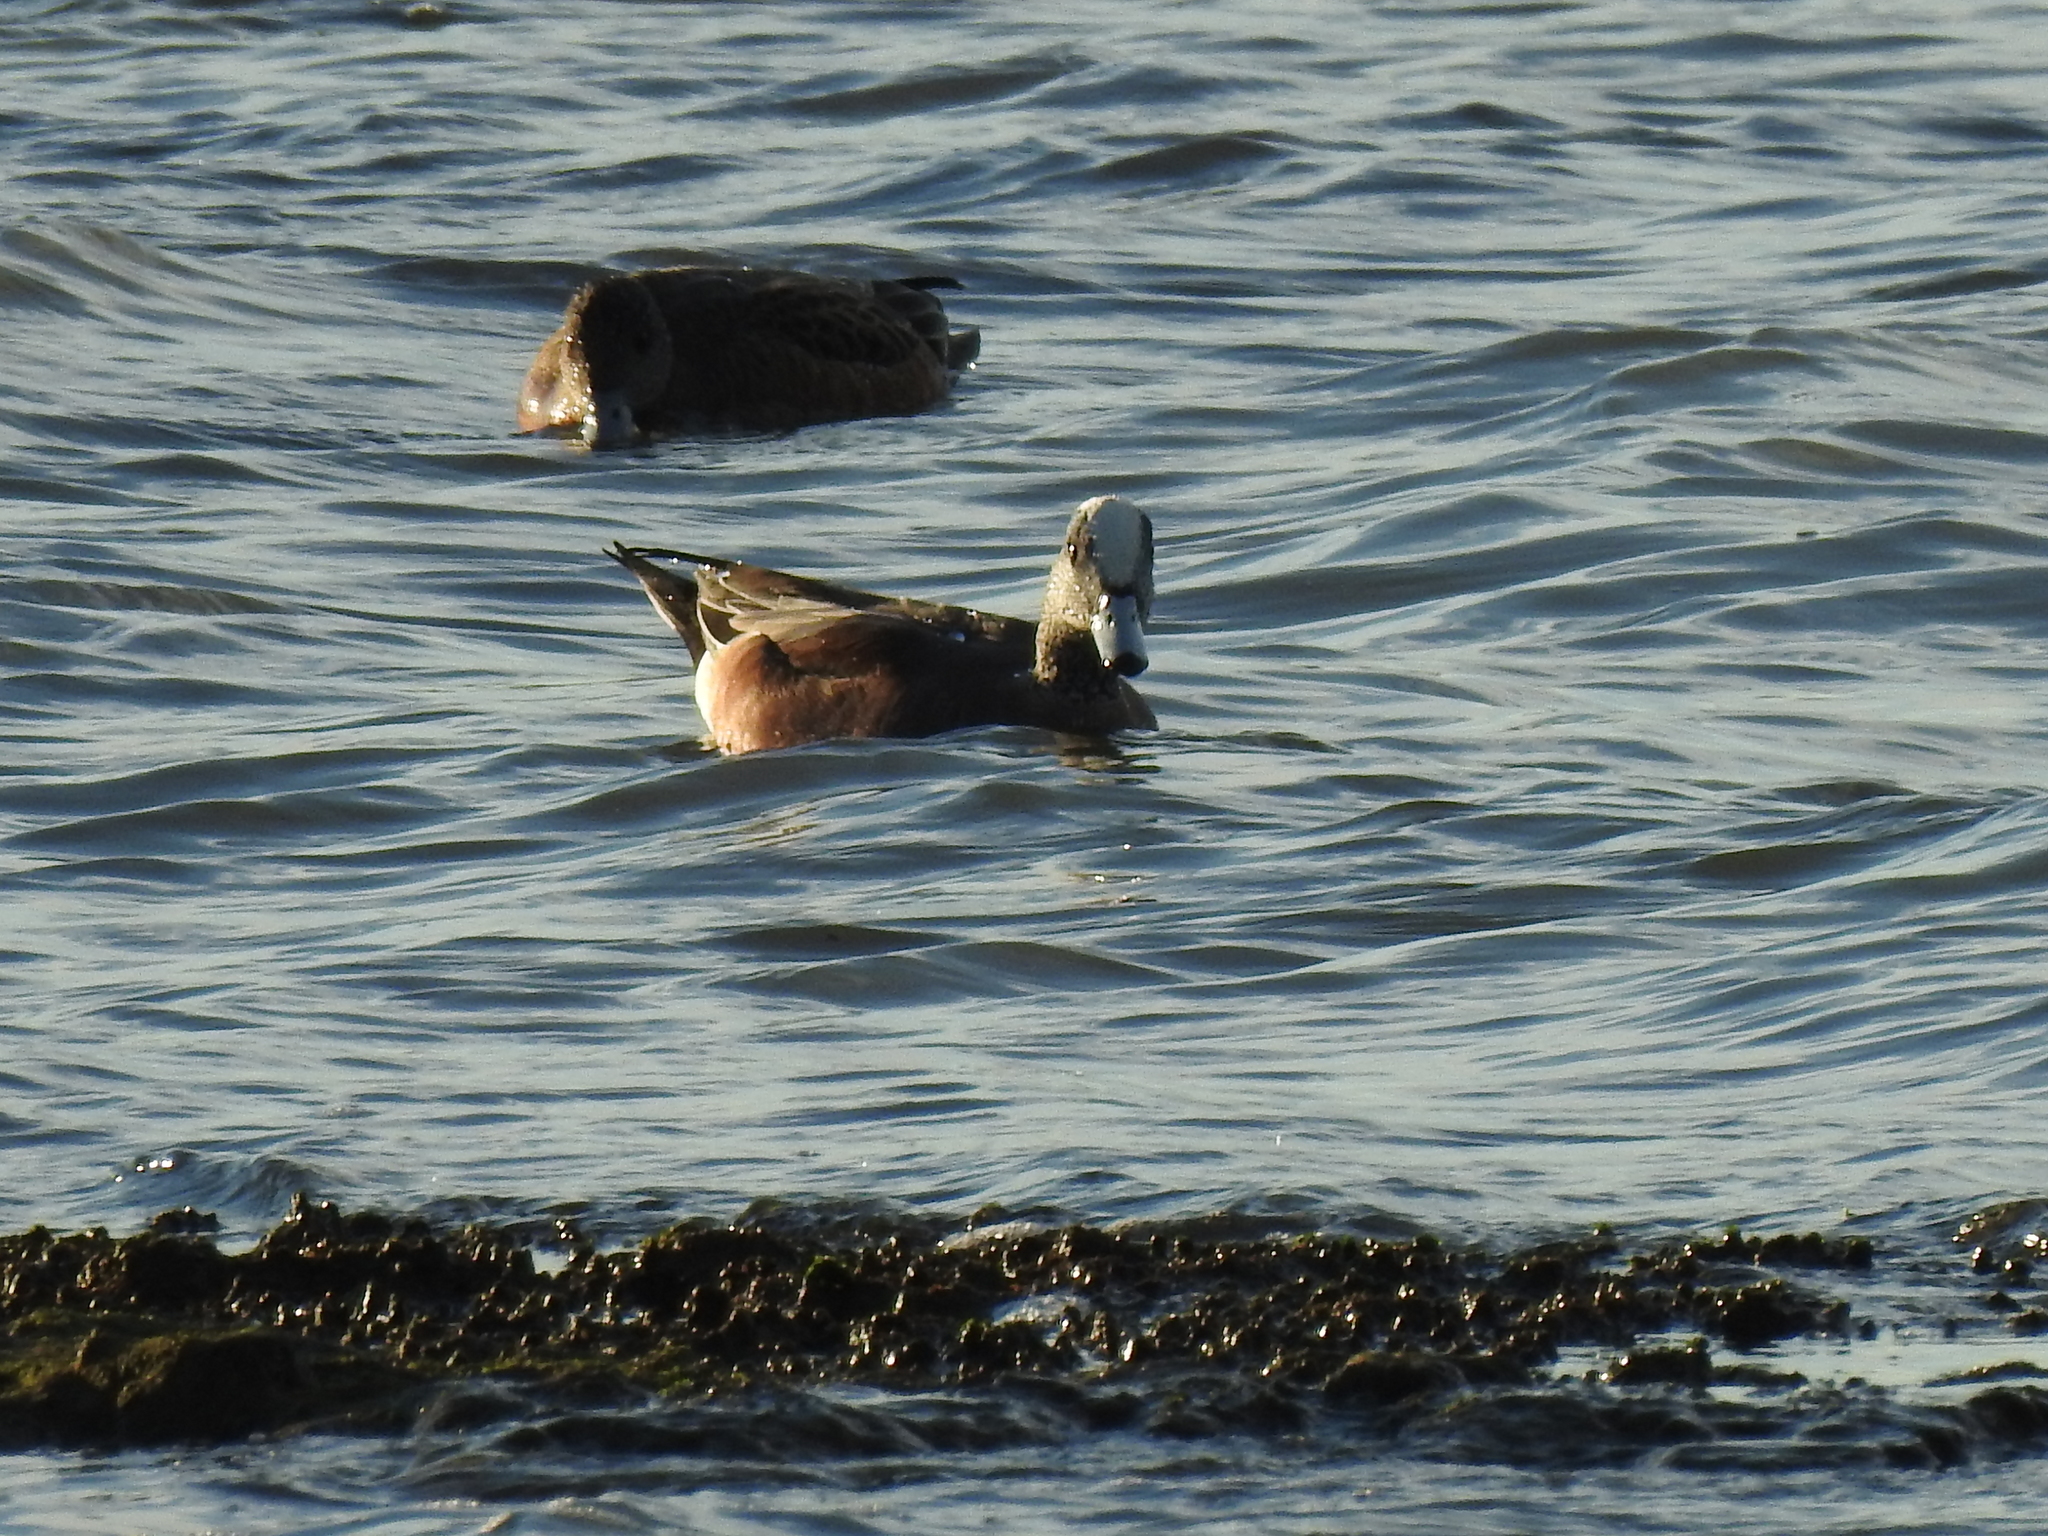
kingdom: Animalia
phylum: Chordata
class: Aves
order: Anseriformes
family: Anatidae
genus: Mareca
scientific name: Mareca americana
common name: American wigeon
